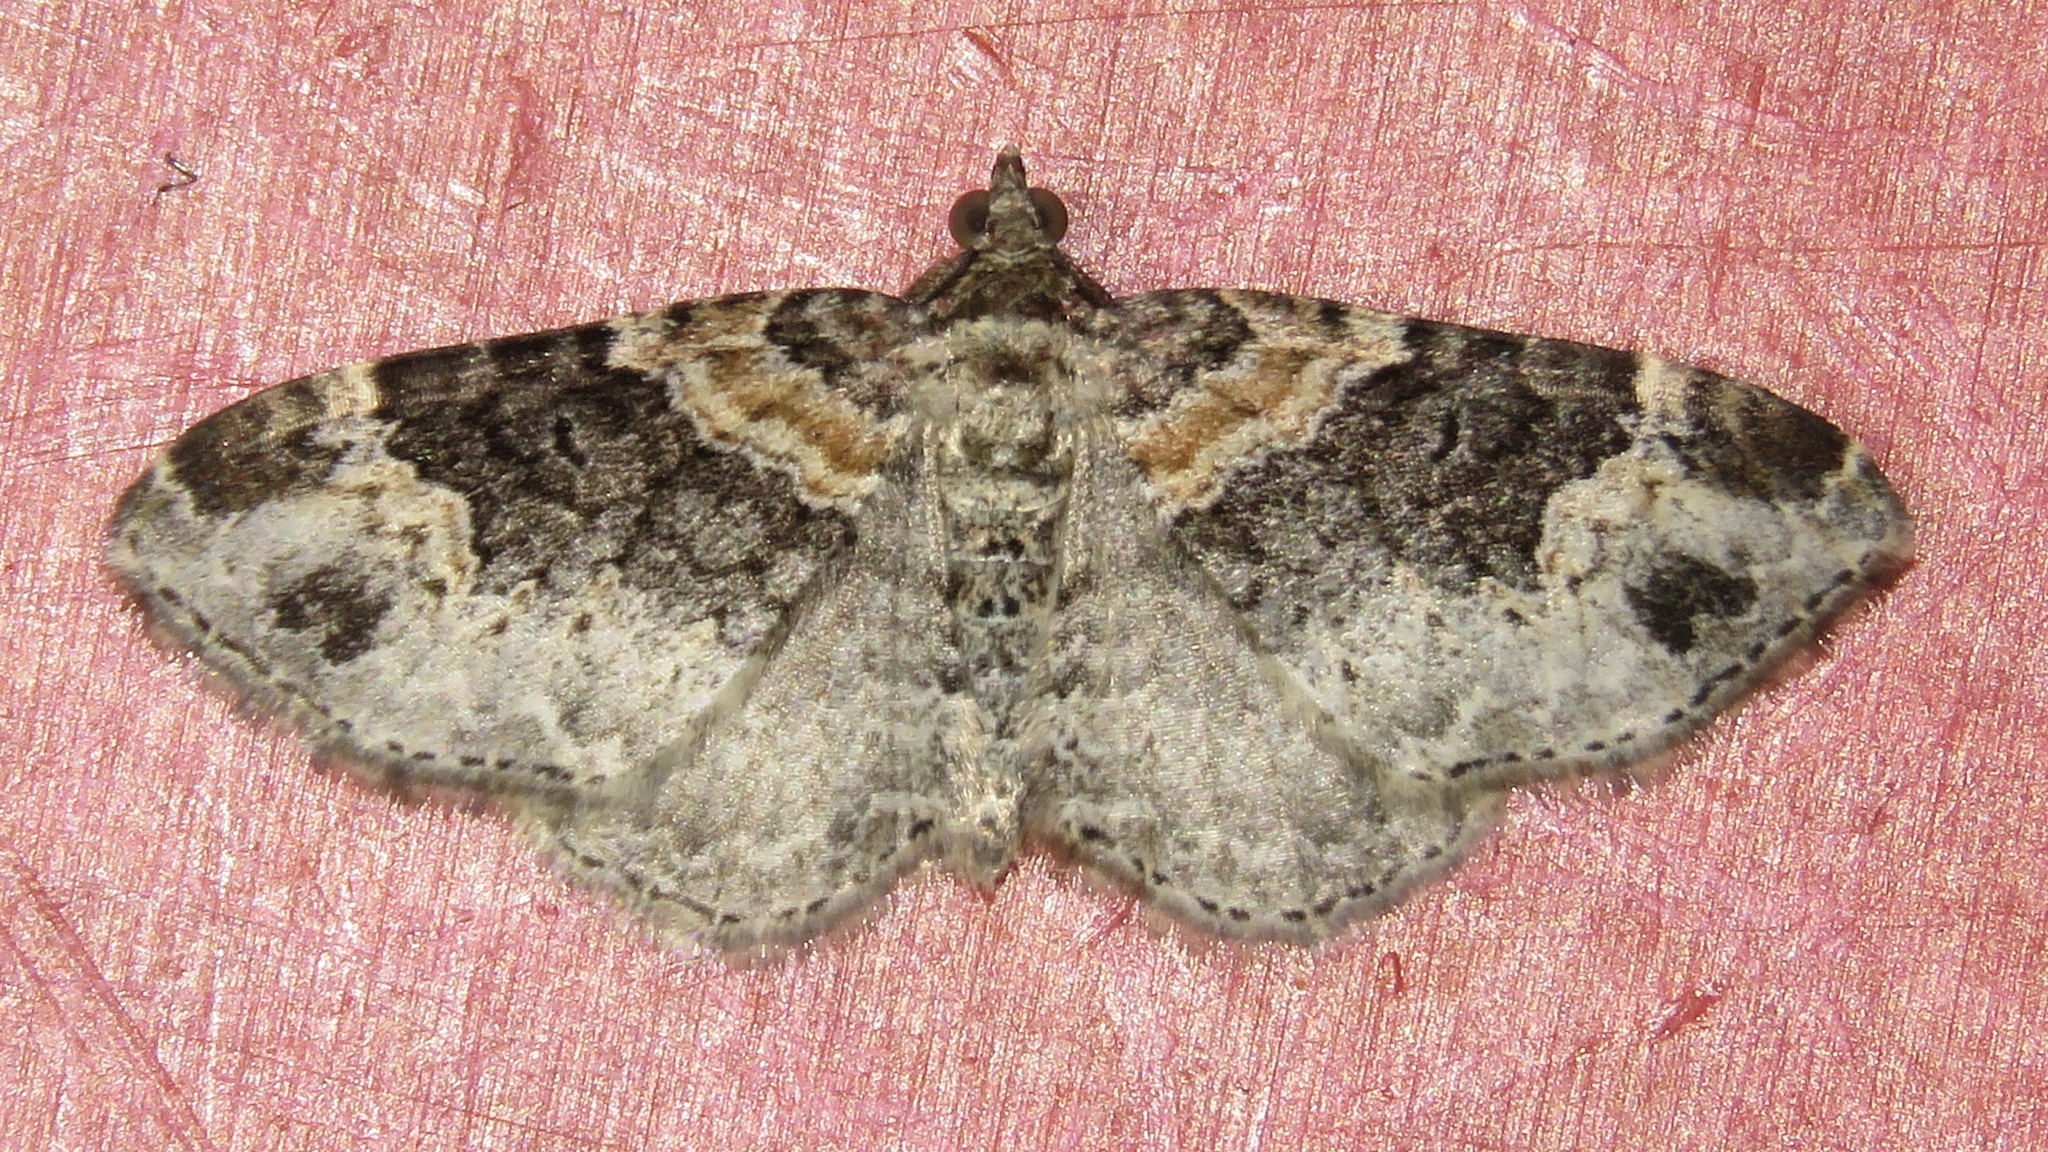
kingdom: Animalia
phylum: Arthropoda
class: Insecta
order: Lepidoptera
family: Geometridae
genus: Xanthorhoe
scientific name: Xanthorhoe ferrugata
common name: Dark-barred twin-spot carpet
